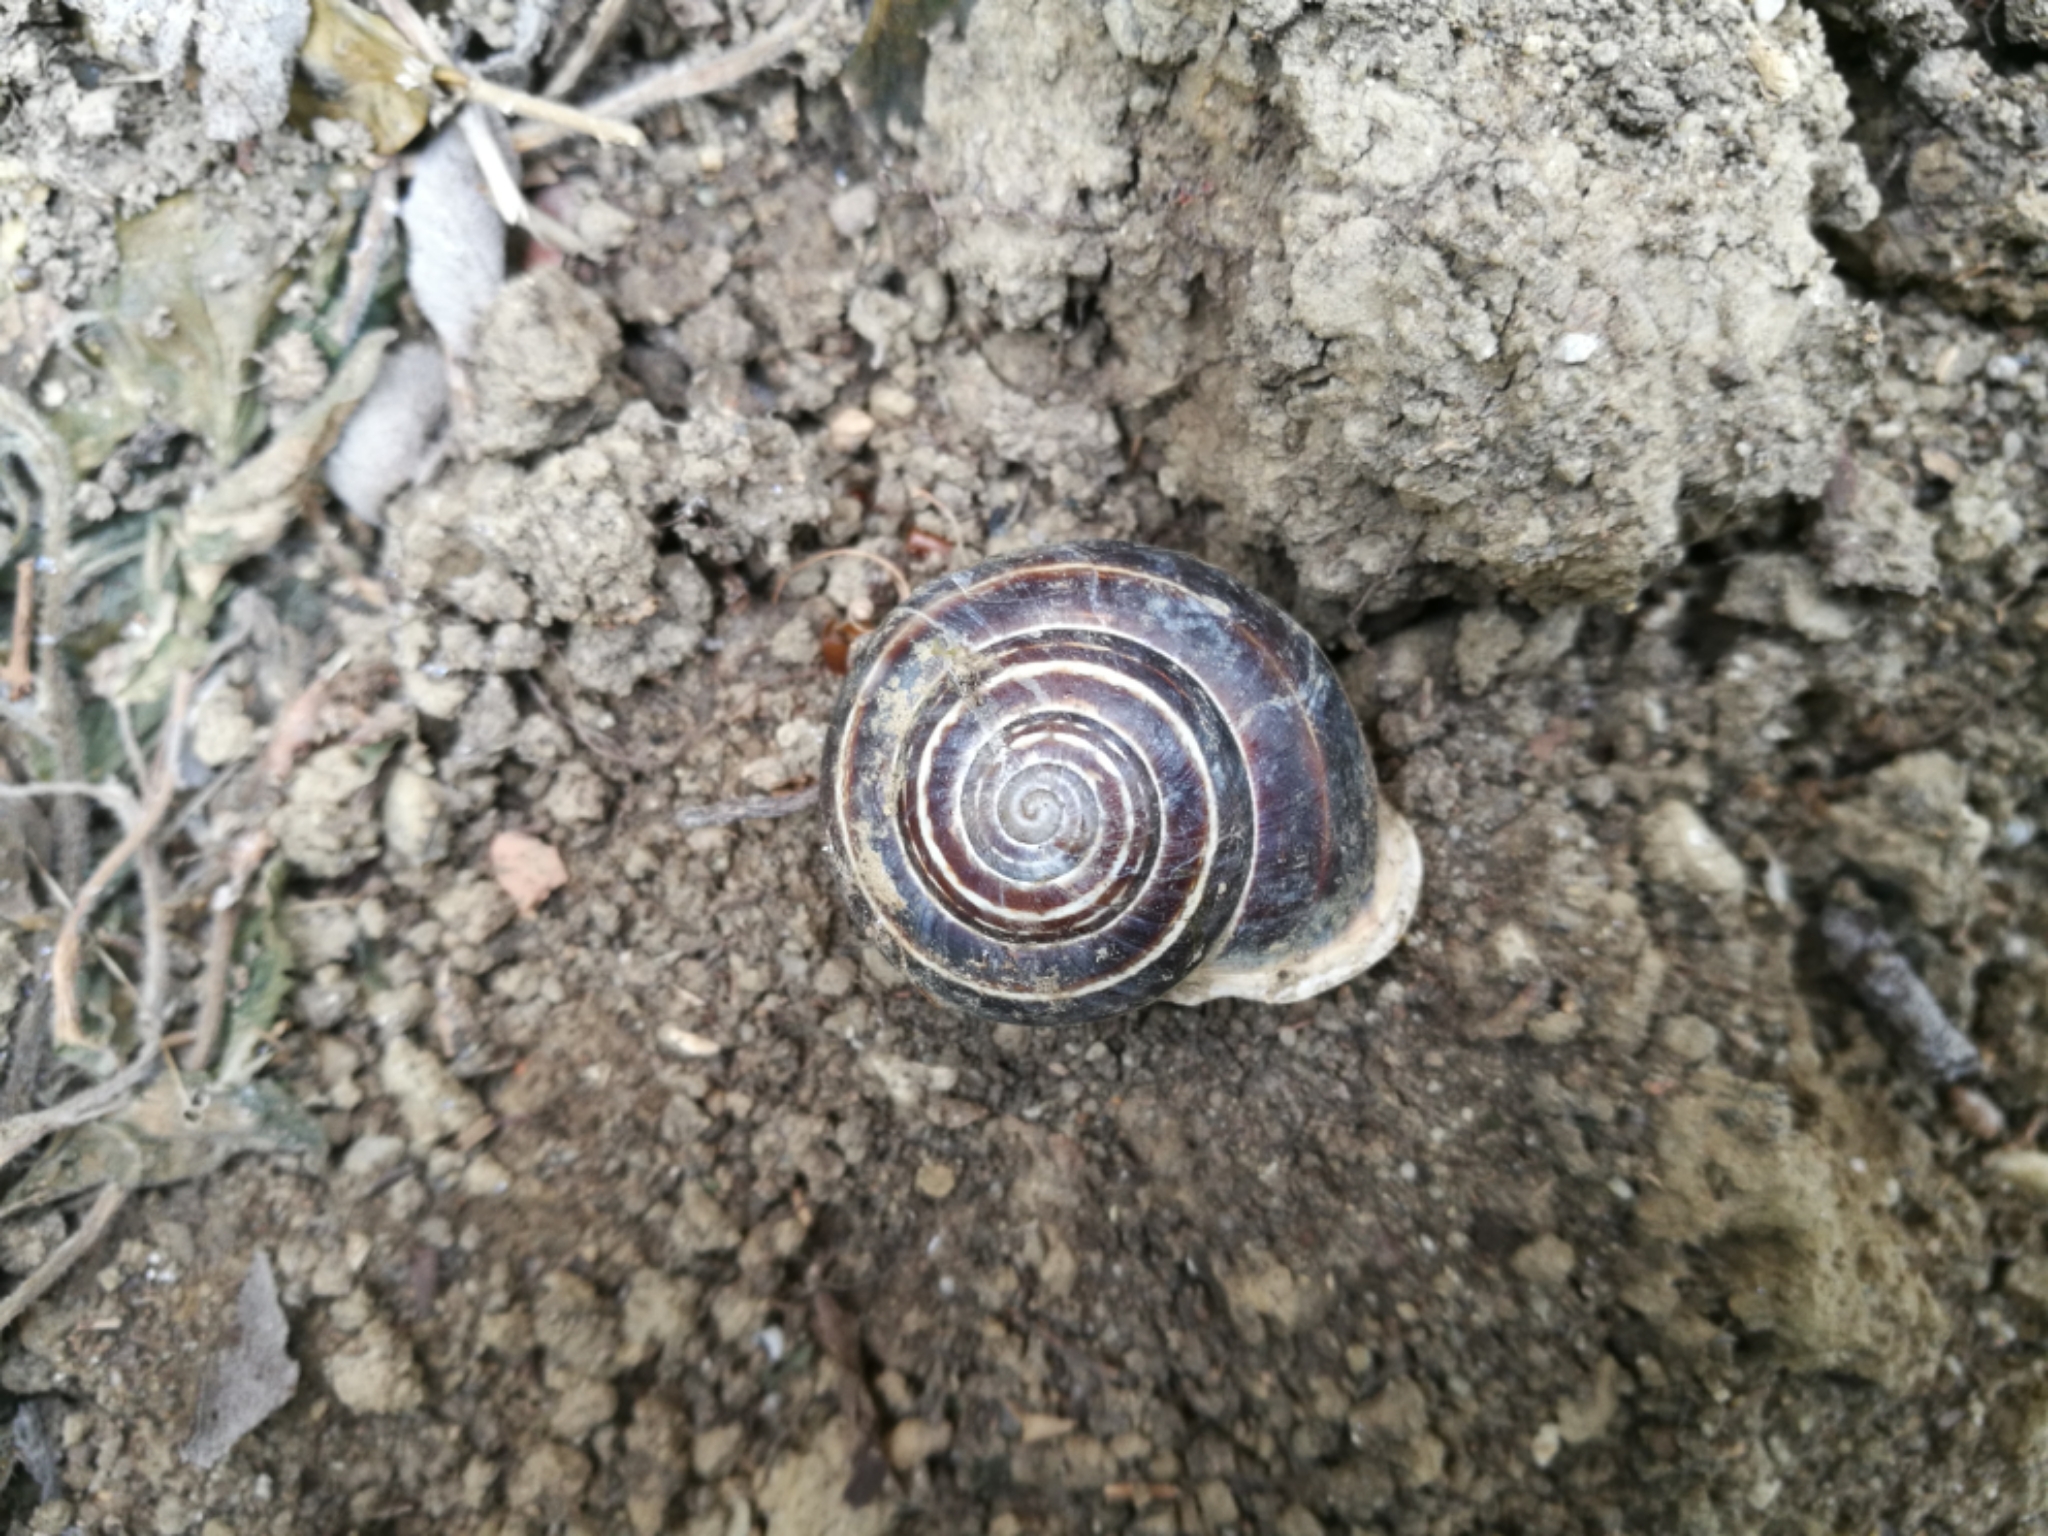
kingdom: Animalia
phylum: Mollusca
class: Gastropoda
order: Stylommatophora
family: Helicidae
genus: Eobania
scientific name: Eobania vermiculata
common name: Chocolateband snail
